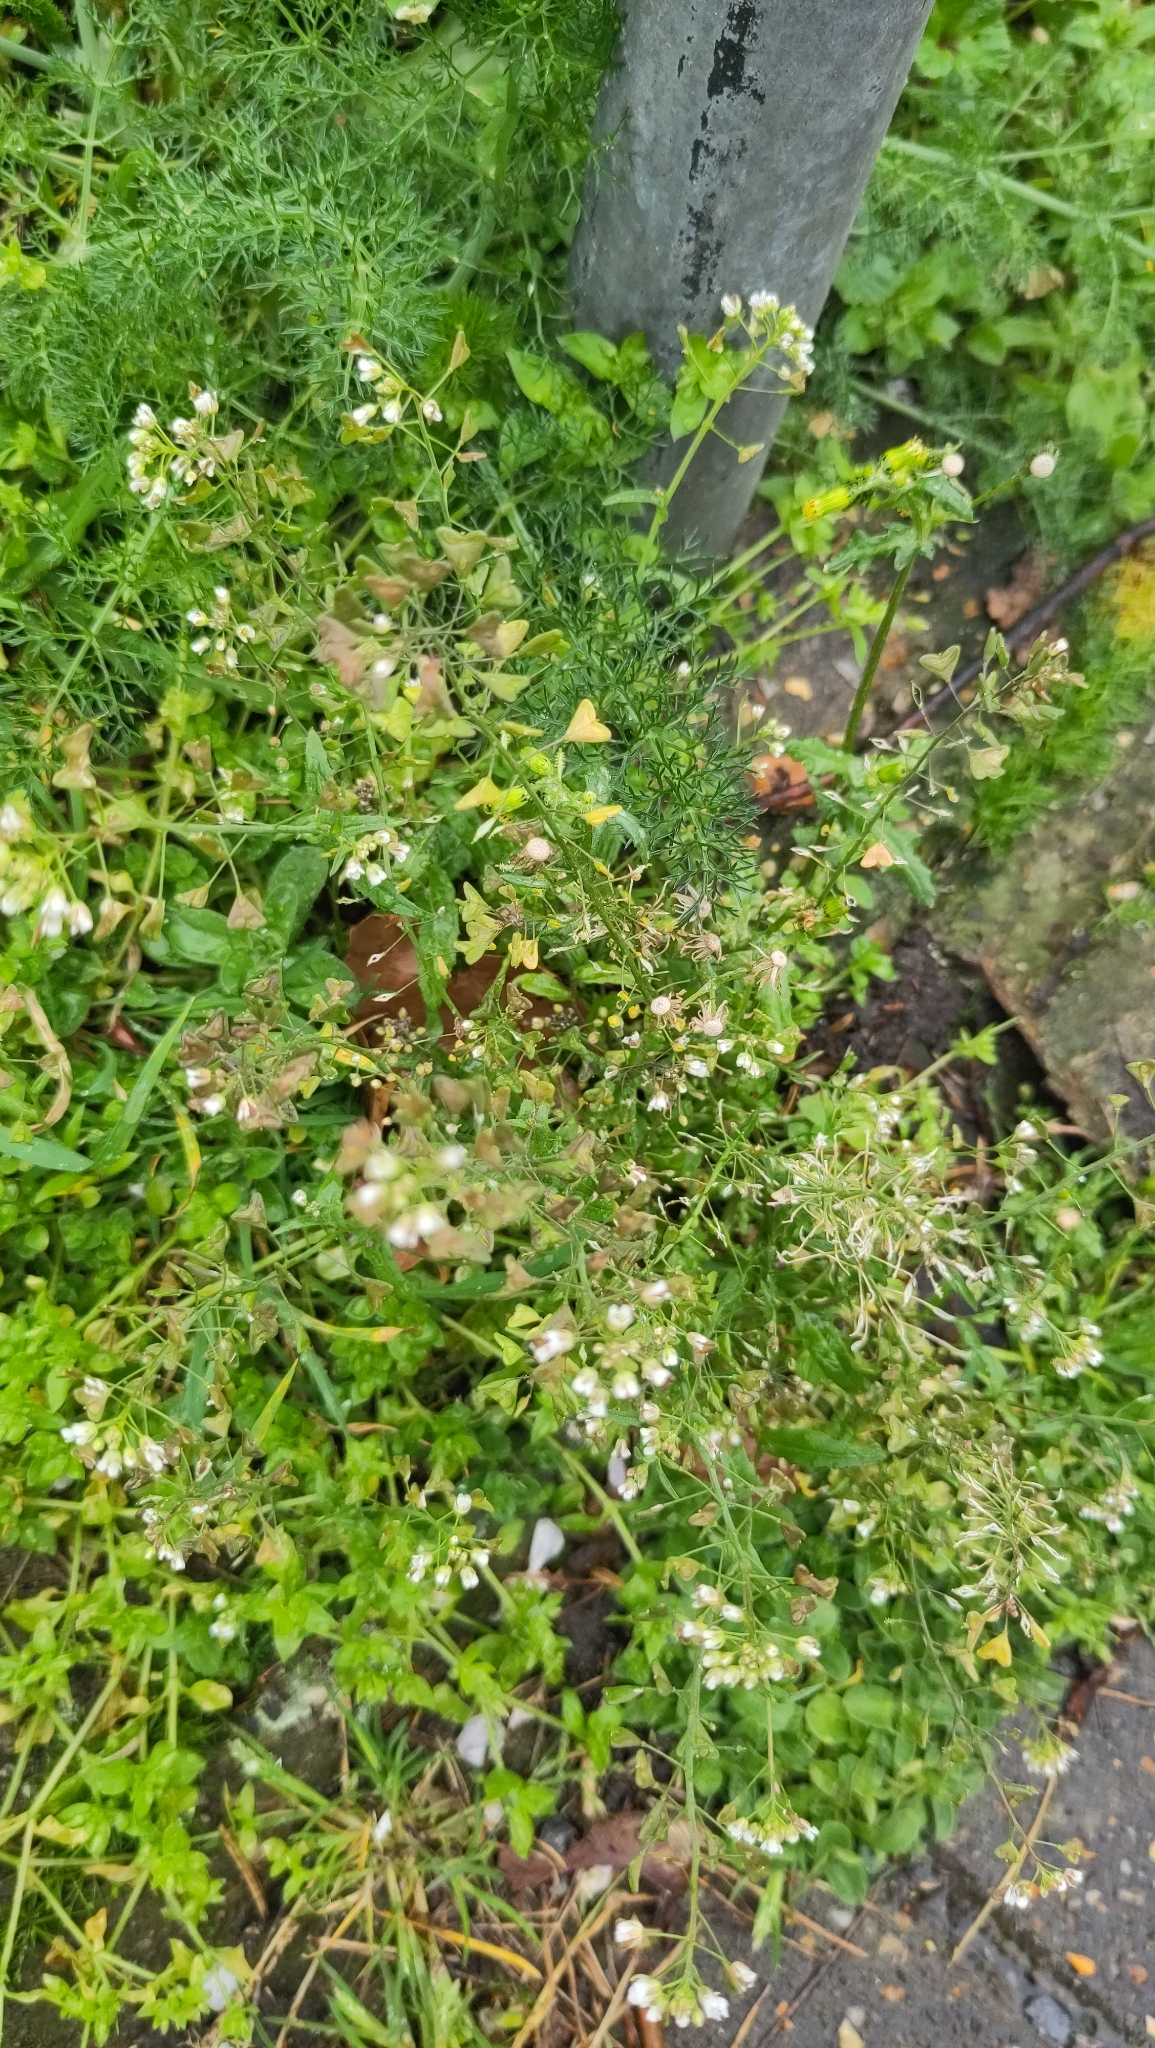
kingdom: Plantae
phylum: Tracheophyta
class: Magnoliopsida
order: Brassicales
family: Brassicaceae
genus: Capsella
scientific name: Capsella bursa-pastoris
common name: Shepherd's purse
